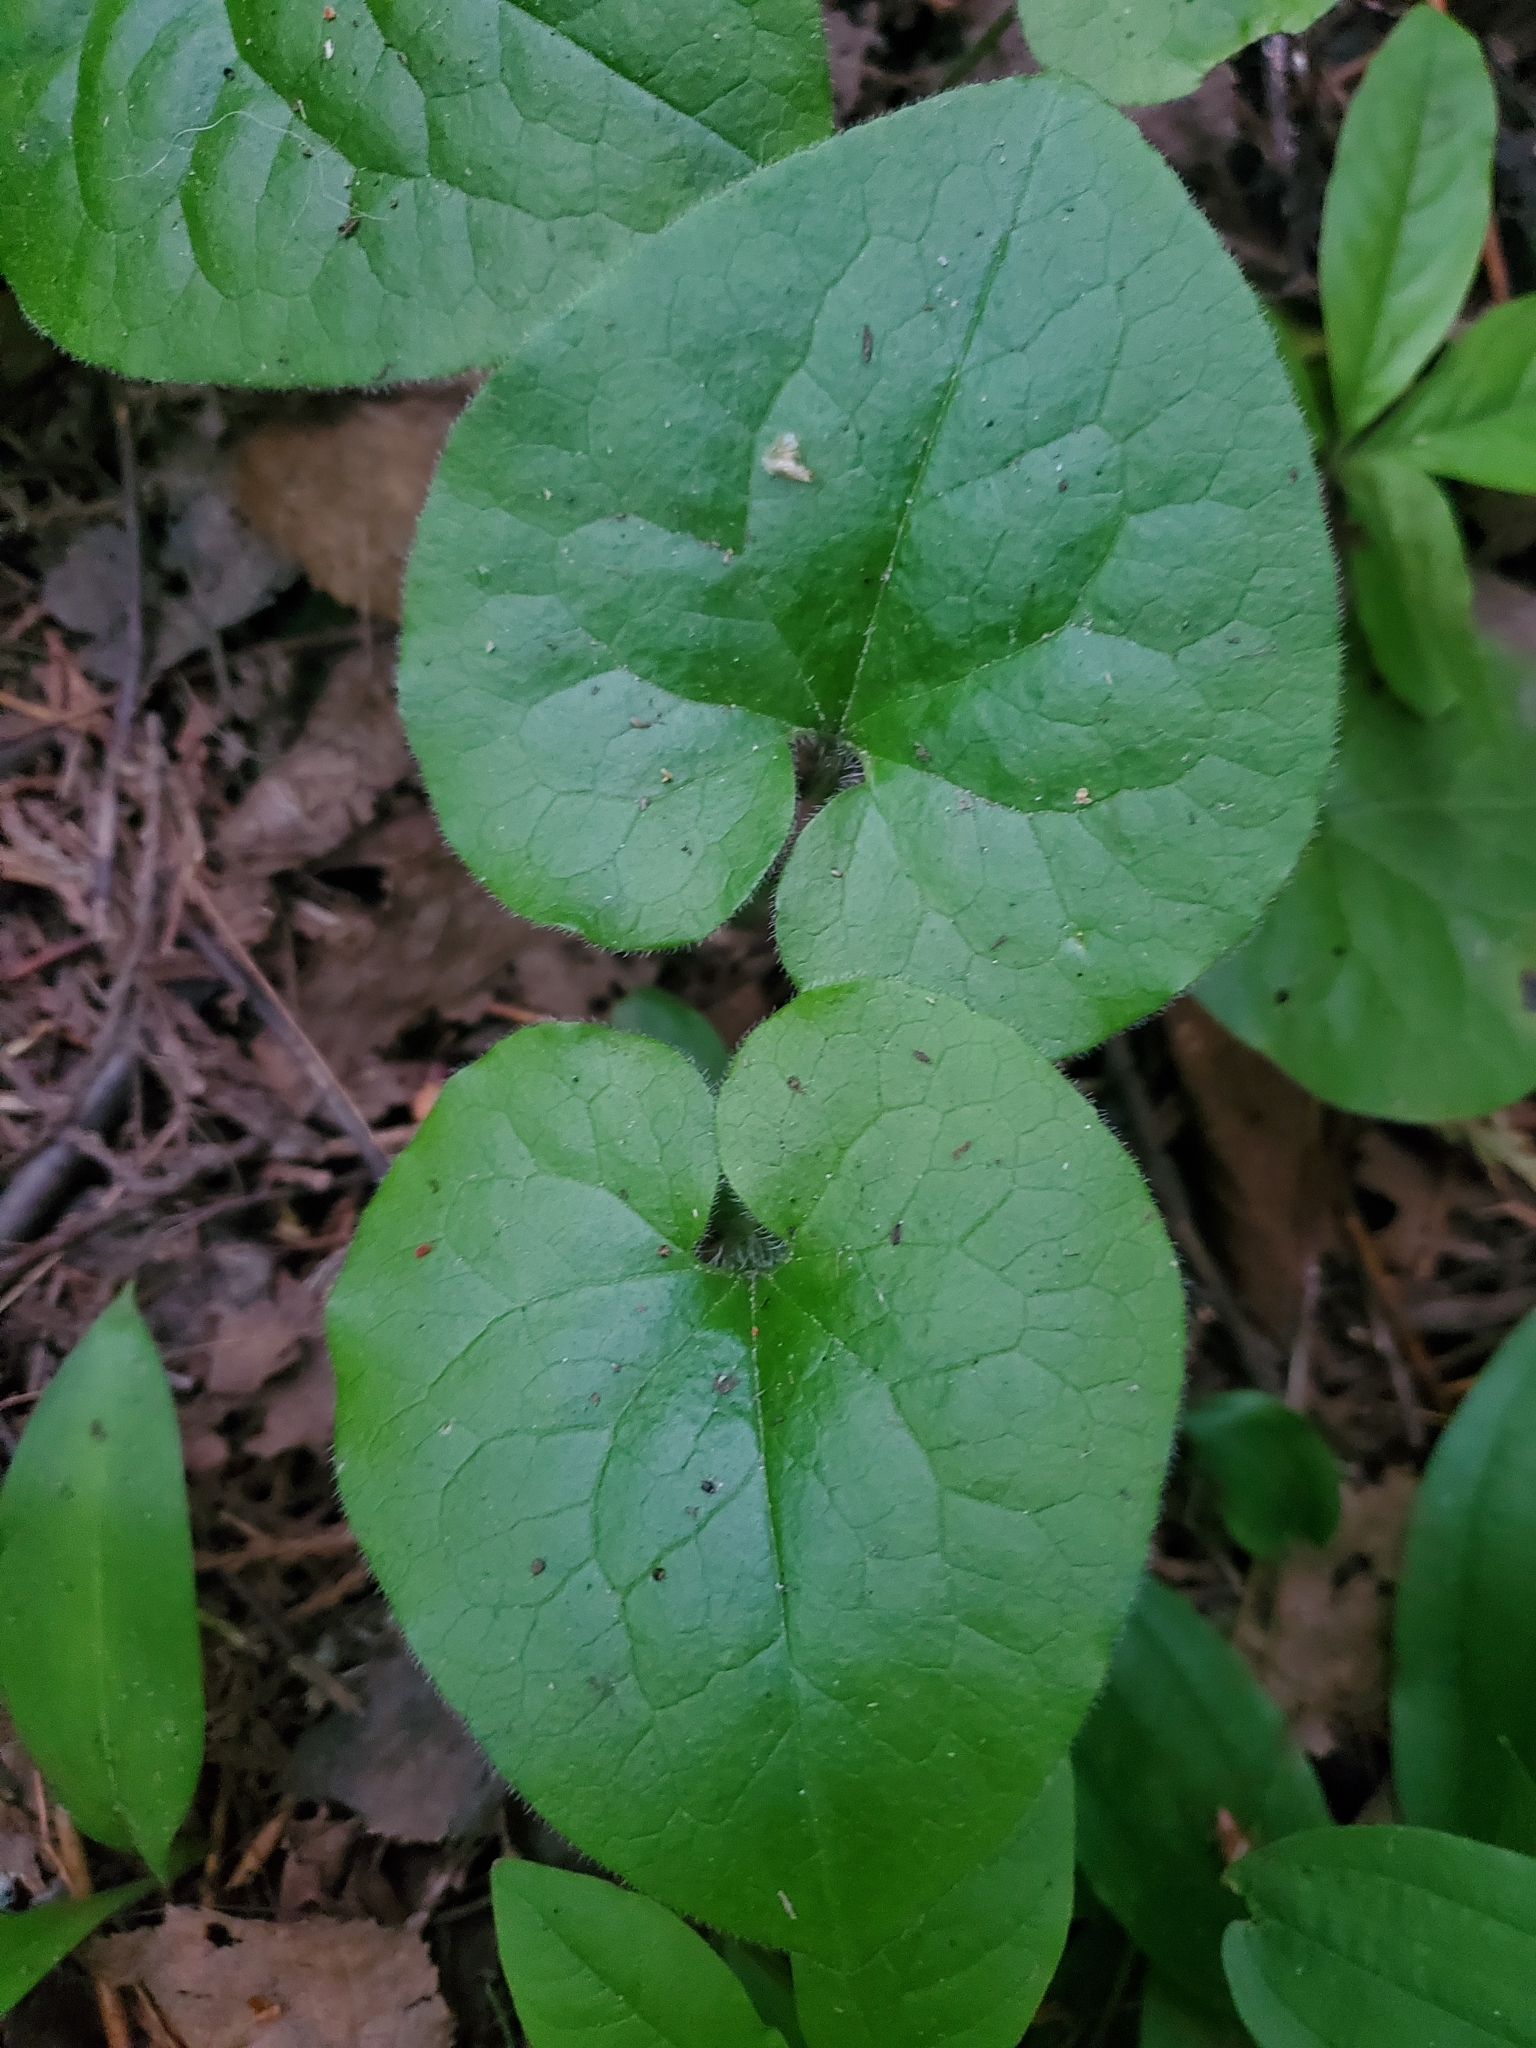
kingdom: Plantae
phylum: Tracheophyta
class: Magnoliopsida
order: Piperales
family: Aristolochiaceae
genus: Asarum
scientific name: Asarum caudatum
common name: Wild ginger
